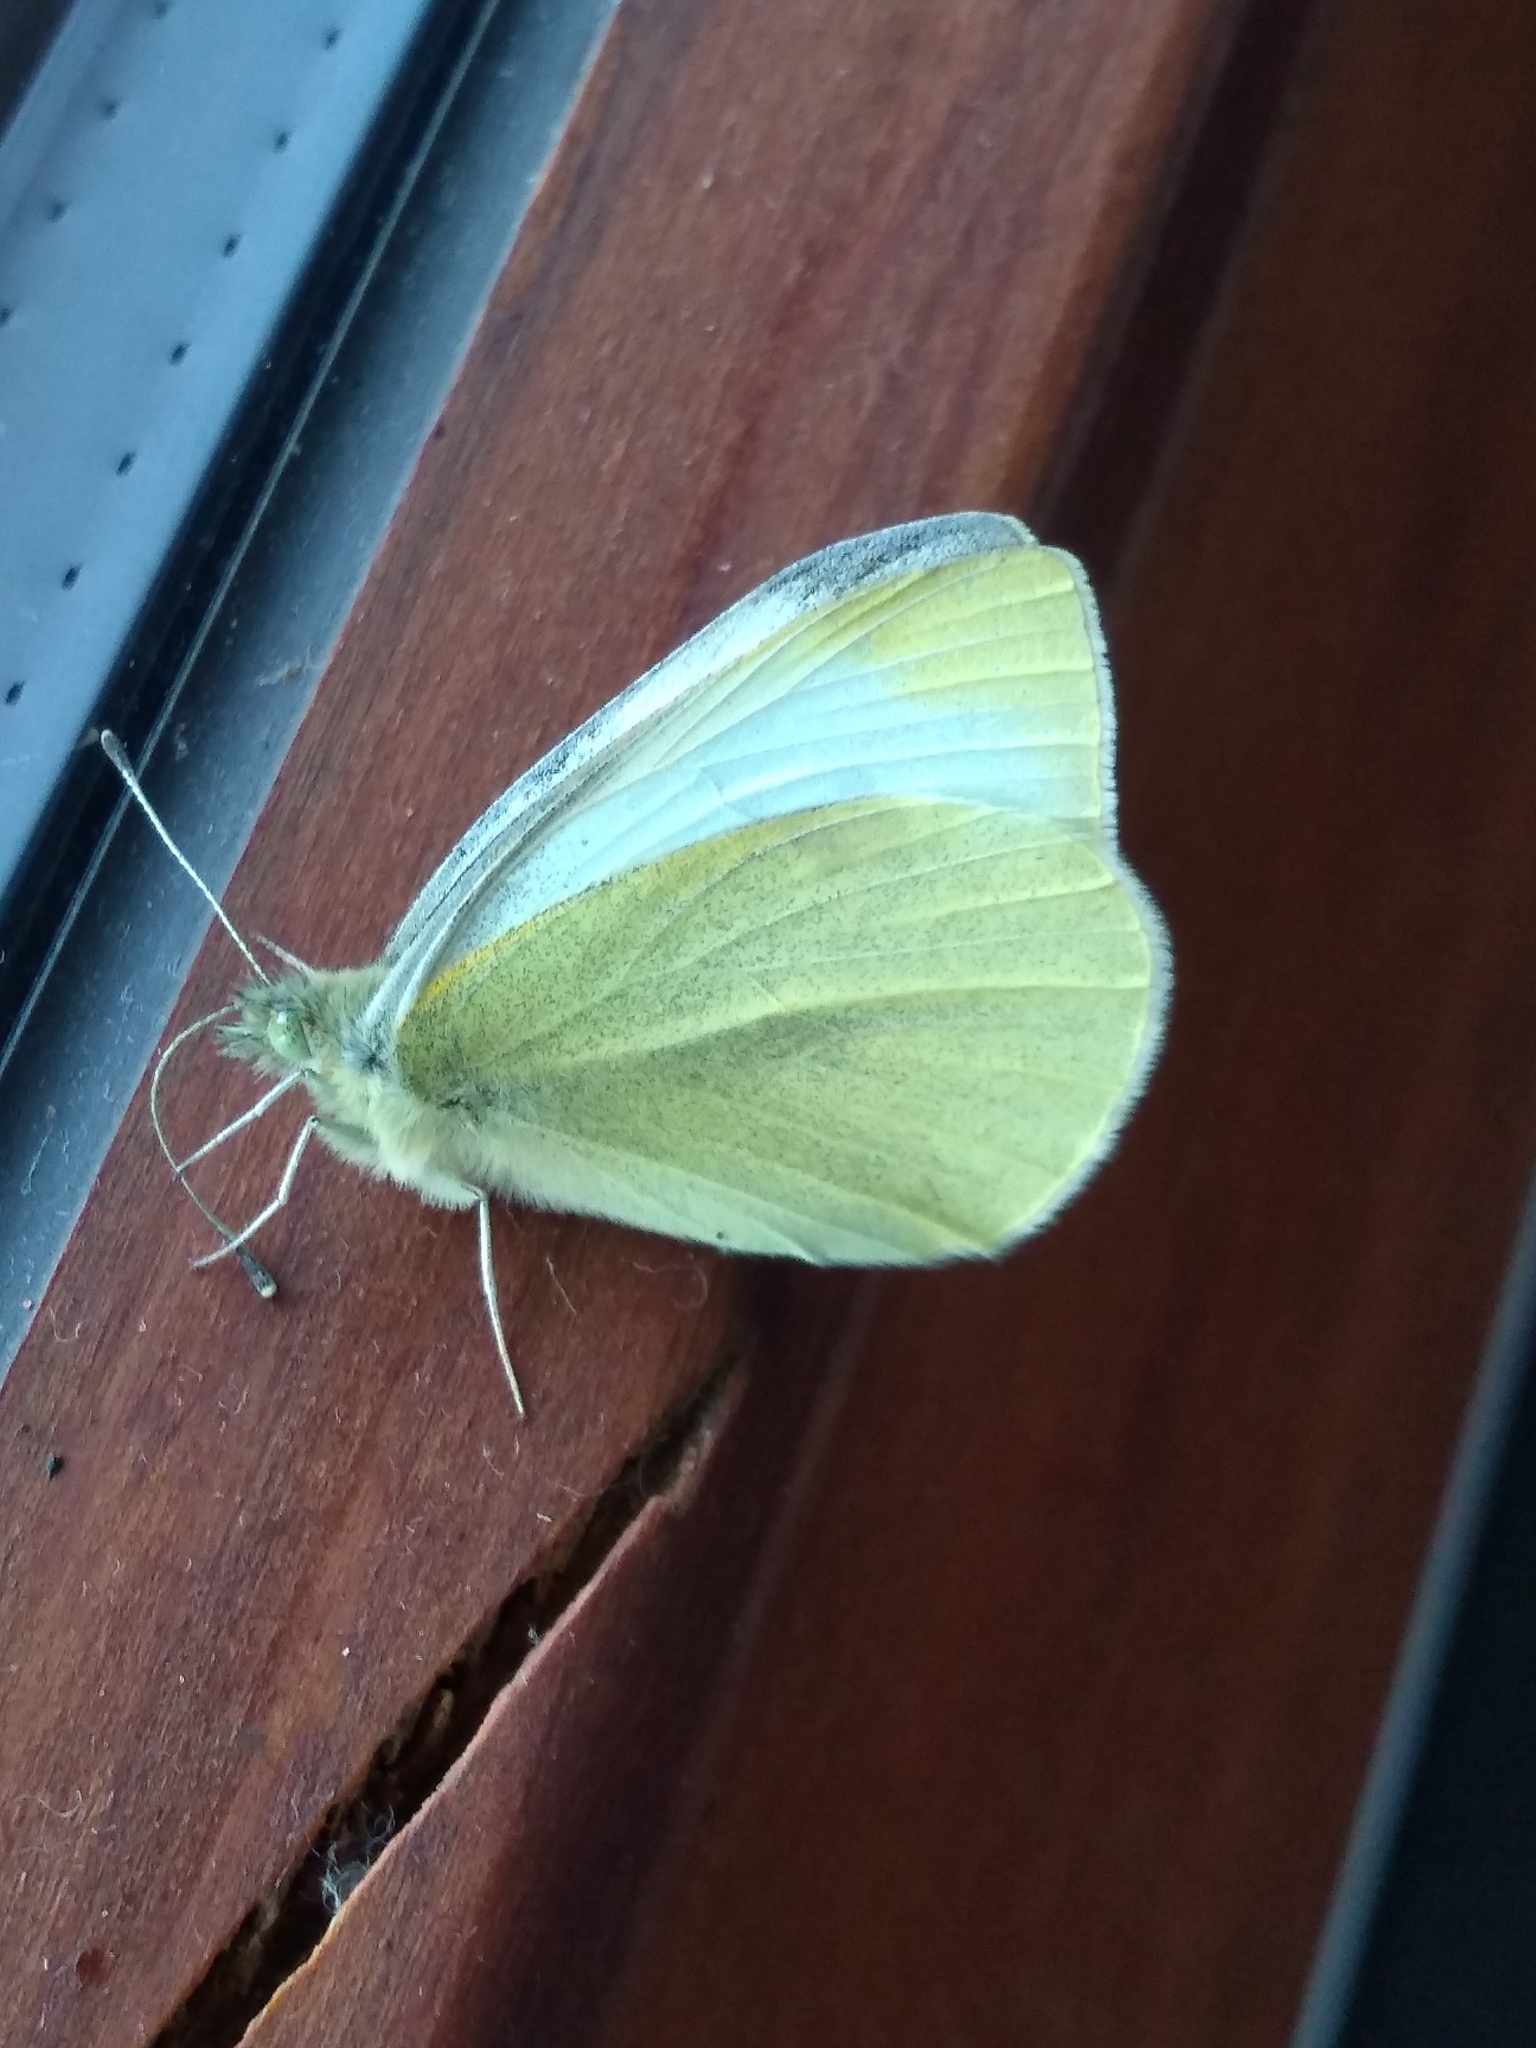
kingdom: Animalia
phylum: Arthropoda
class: Insecta
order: Lepidoptera
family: Pieridae
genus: Pieris
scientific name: Pieris rapae
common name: Small white
